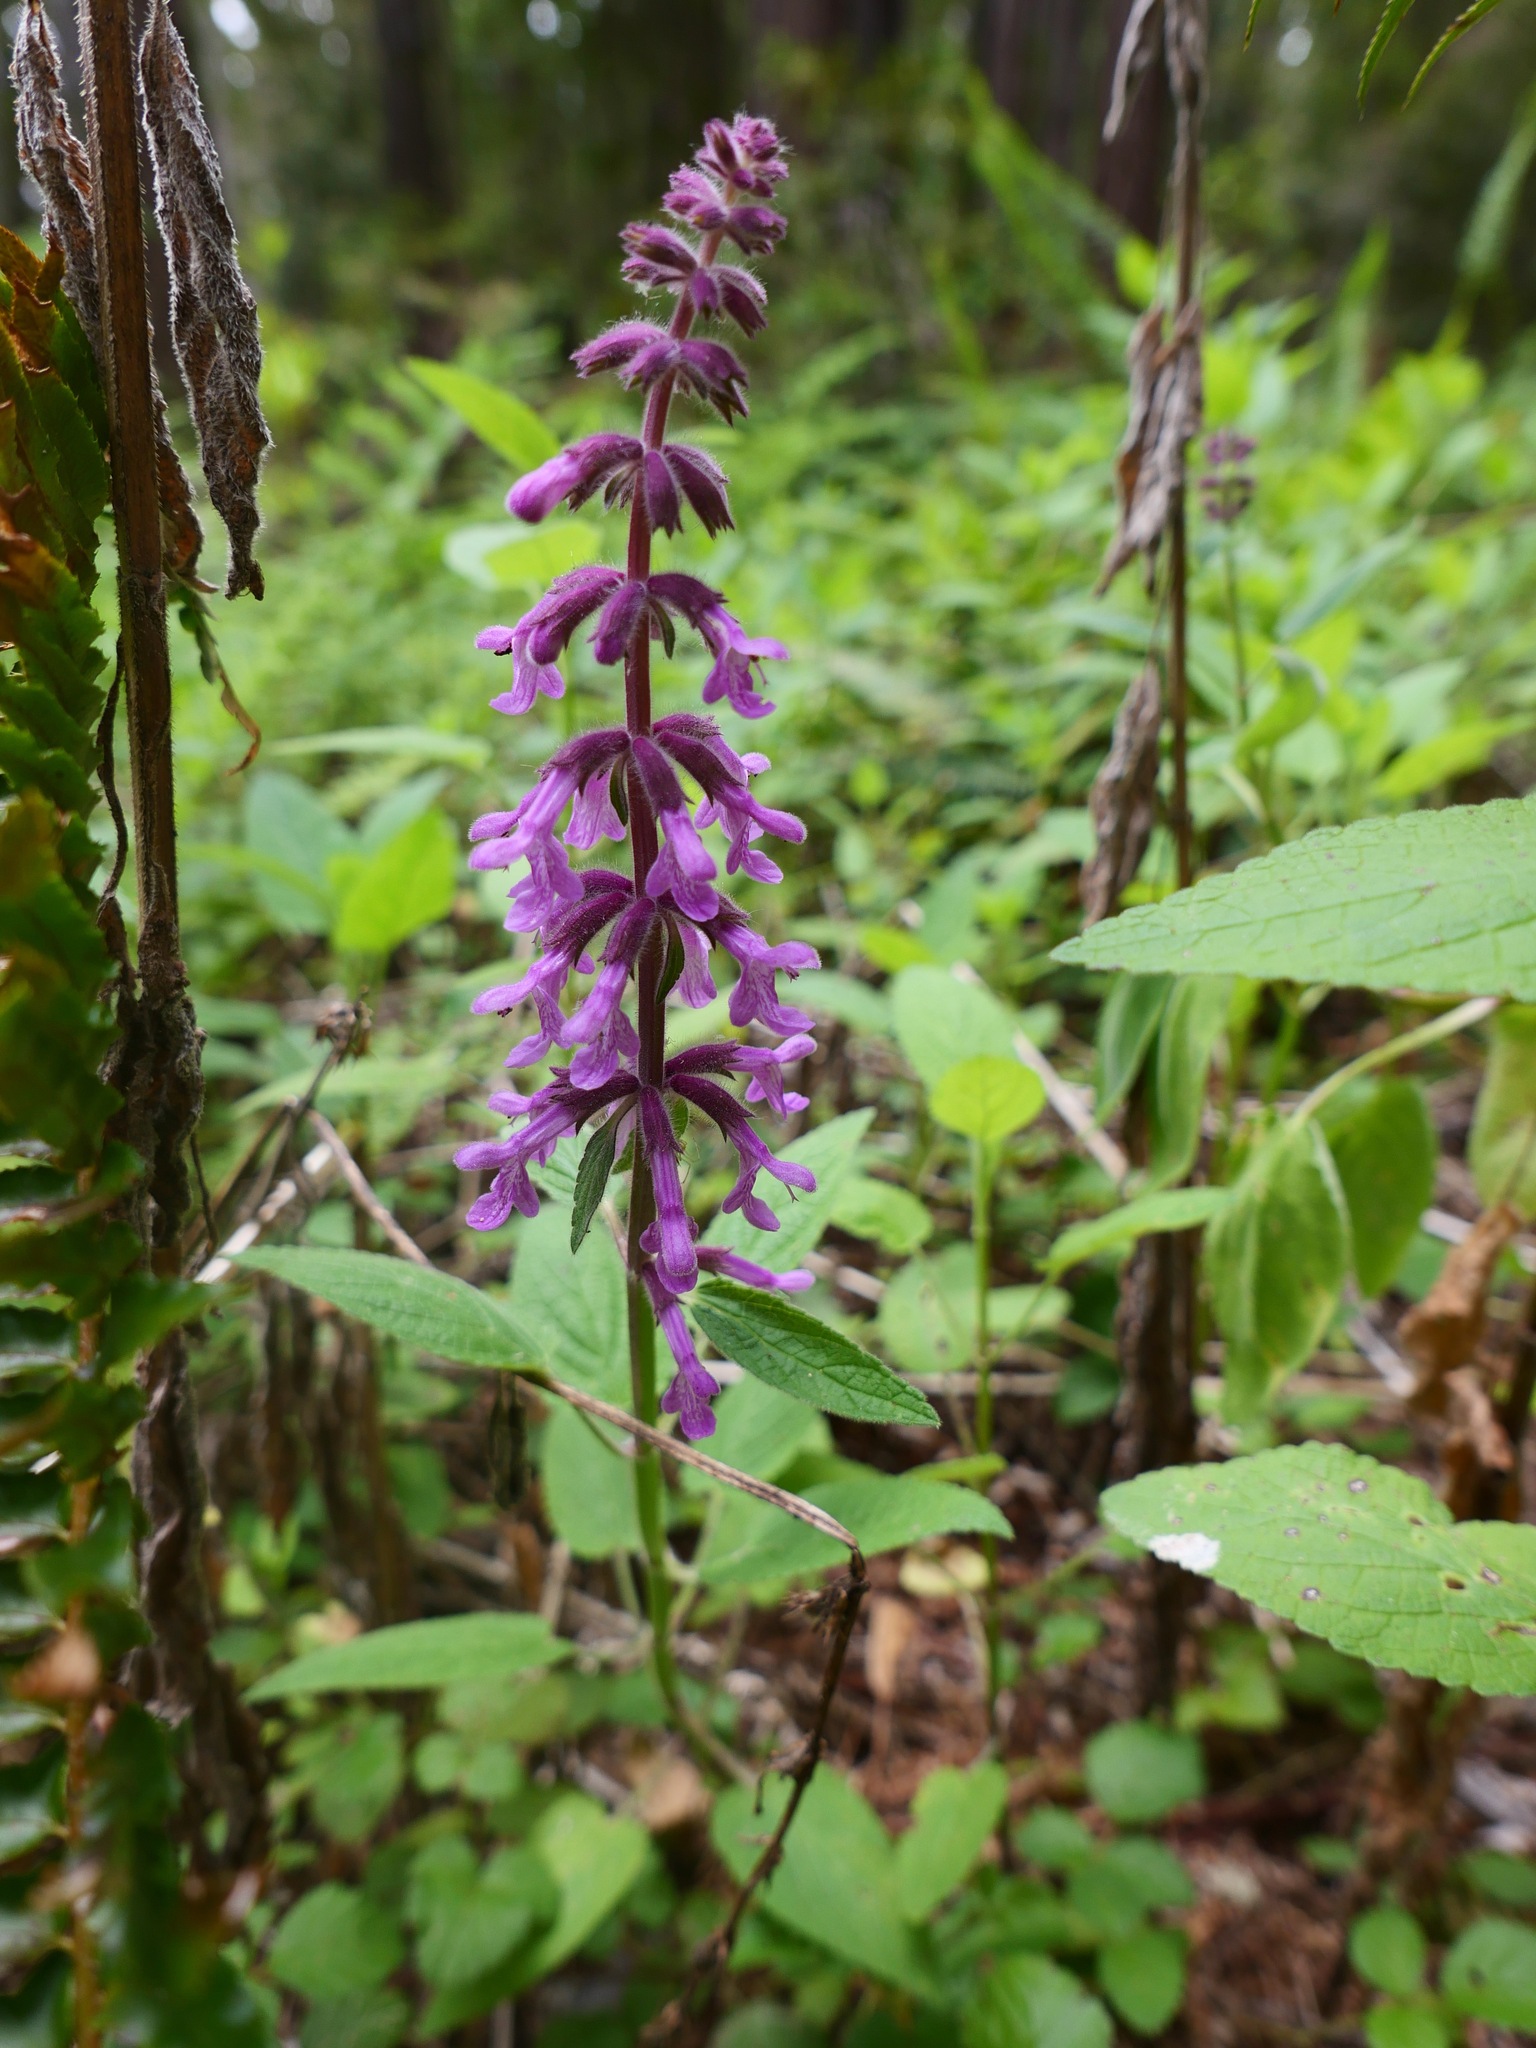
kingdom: Plantae
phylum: Tracheophyta
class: Magnoliopsida
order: Lamiales
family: Lamiaceae
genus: Stachys
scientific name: Stachys chamissonis
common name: Coastal hedge-nettle
